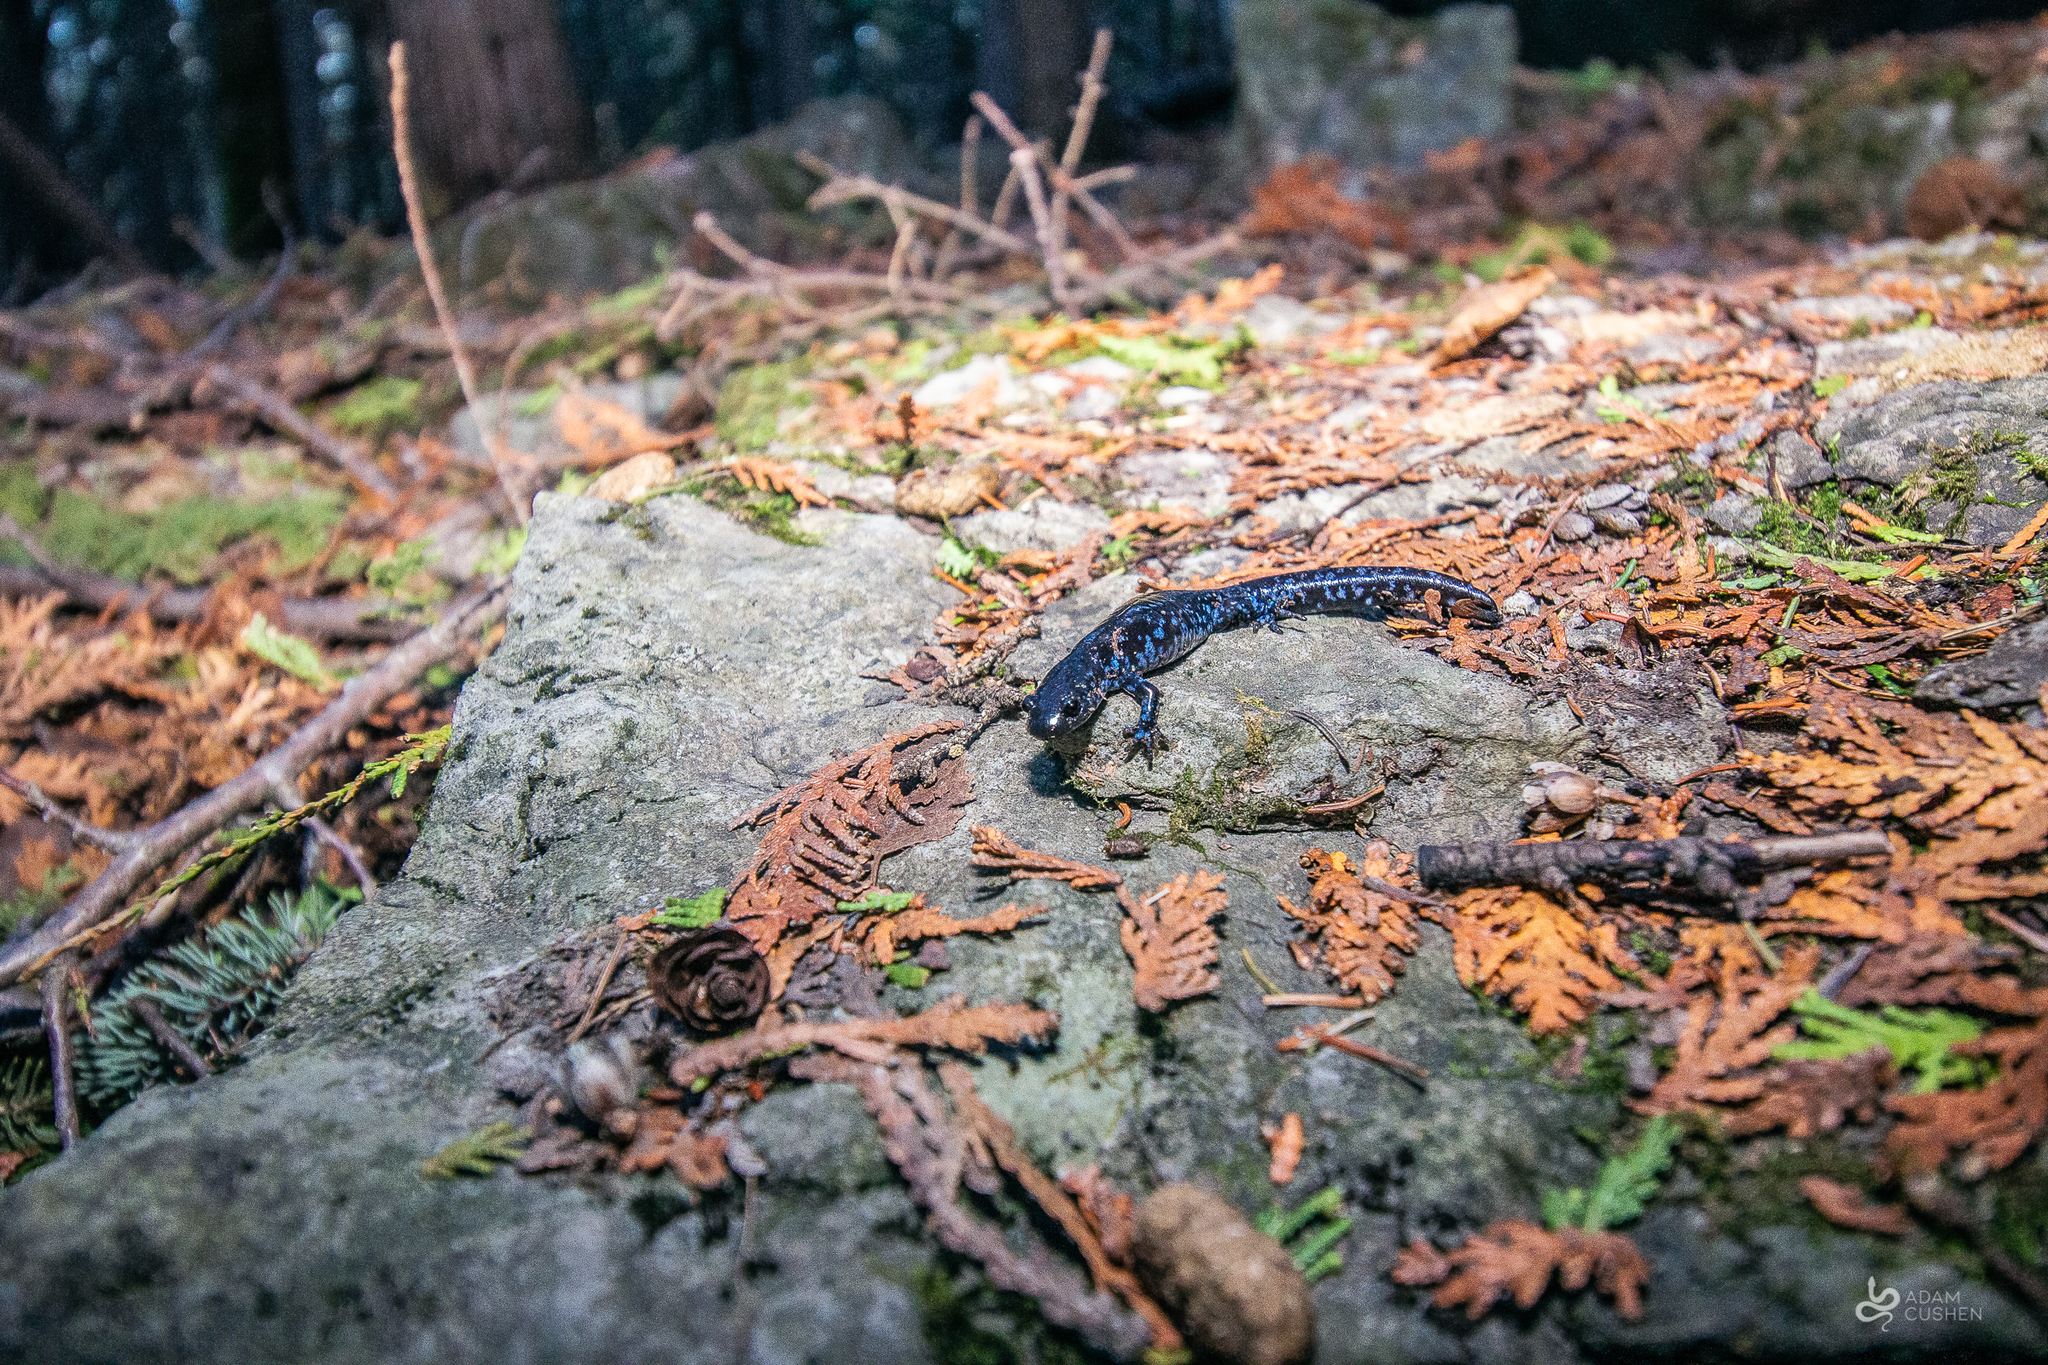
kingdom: Animalia
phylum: Chordata
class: Amphibia
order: Caudata
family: Ambystomatidae
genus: Ambystoma
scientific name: Ambystoma laterale
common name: Blue-spotted salamander
